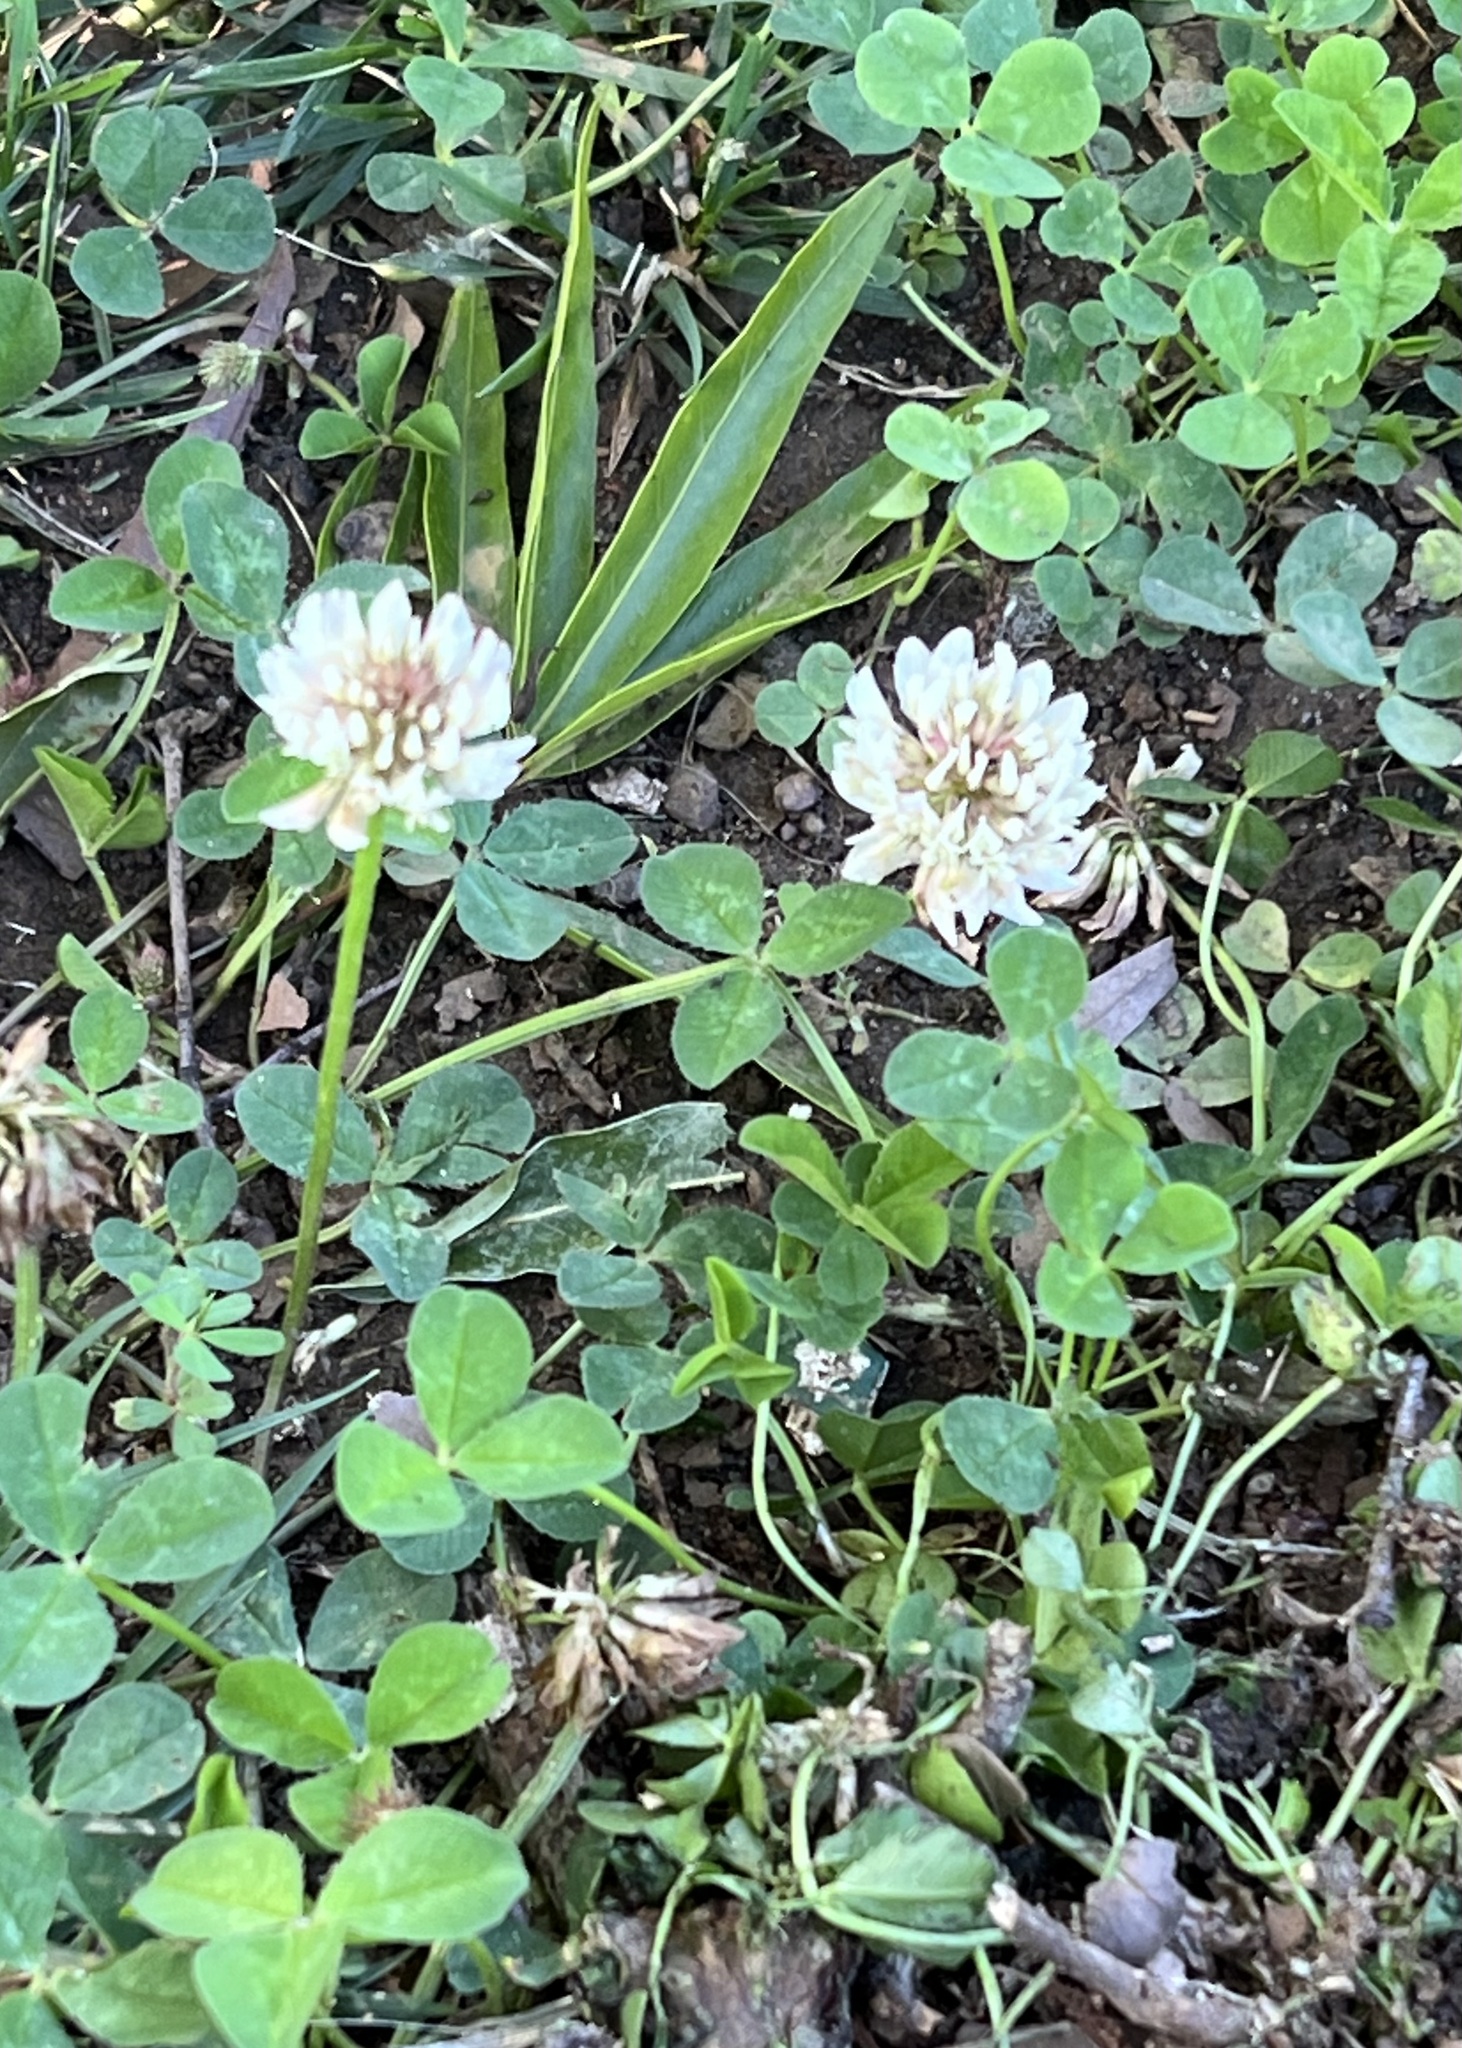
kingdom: Plantae
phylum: Tracheophyta
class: Magnoliopsida
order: Fabales
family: Fabaceae
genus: Trifolium
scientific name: Trifolium repens
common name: White clover
